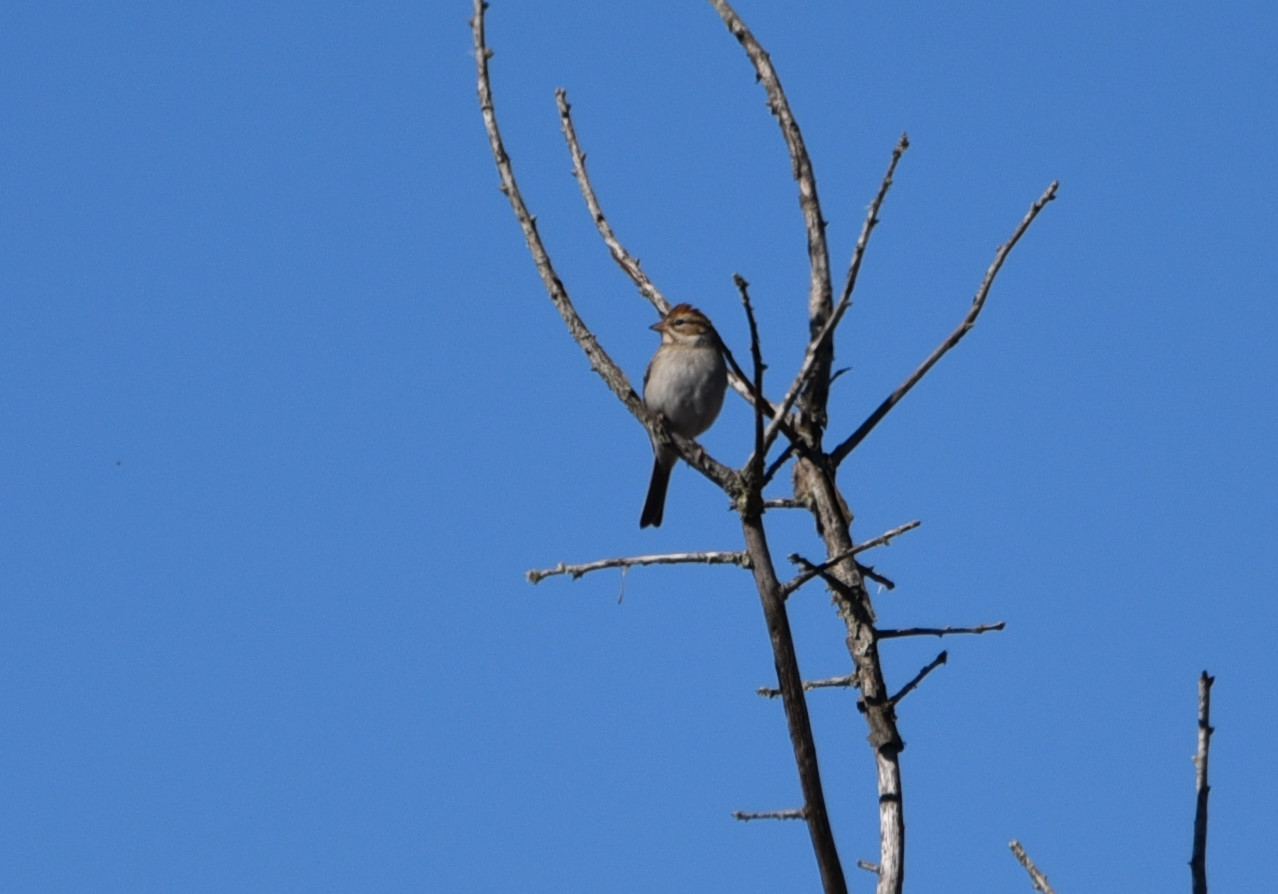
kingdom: Animalia
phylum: Chordata
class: Aves
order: Passeriformes
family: Passerellidae
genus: Spizella
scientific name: Spizella passerina
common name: Chipping sparrow
